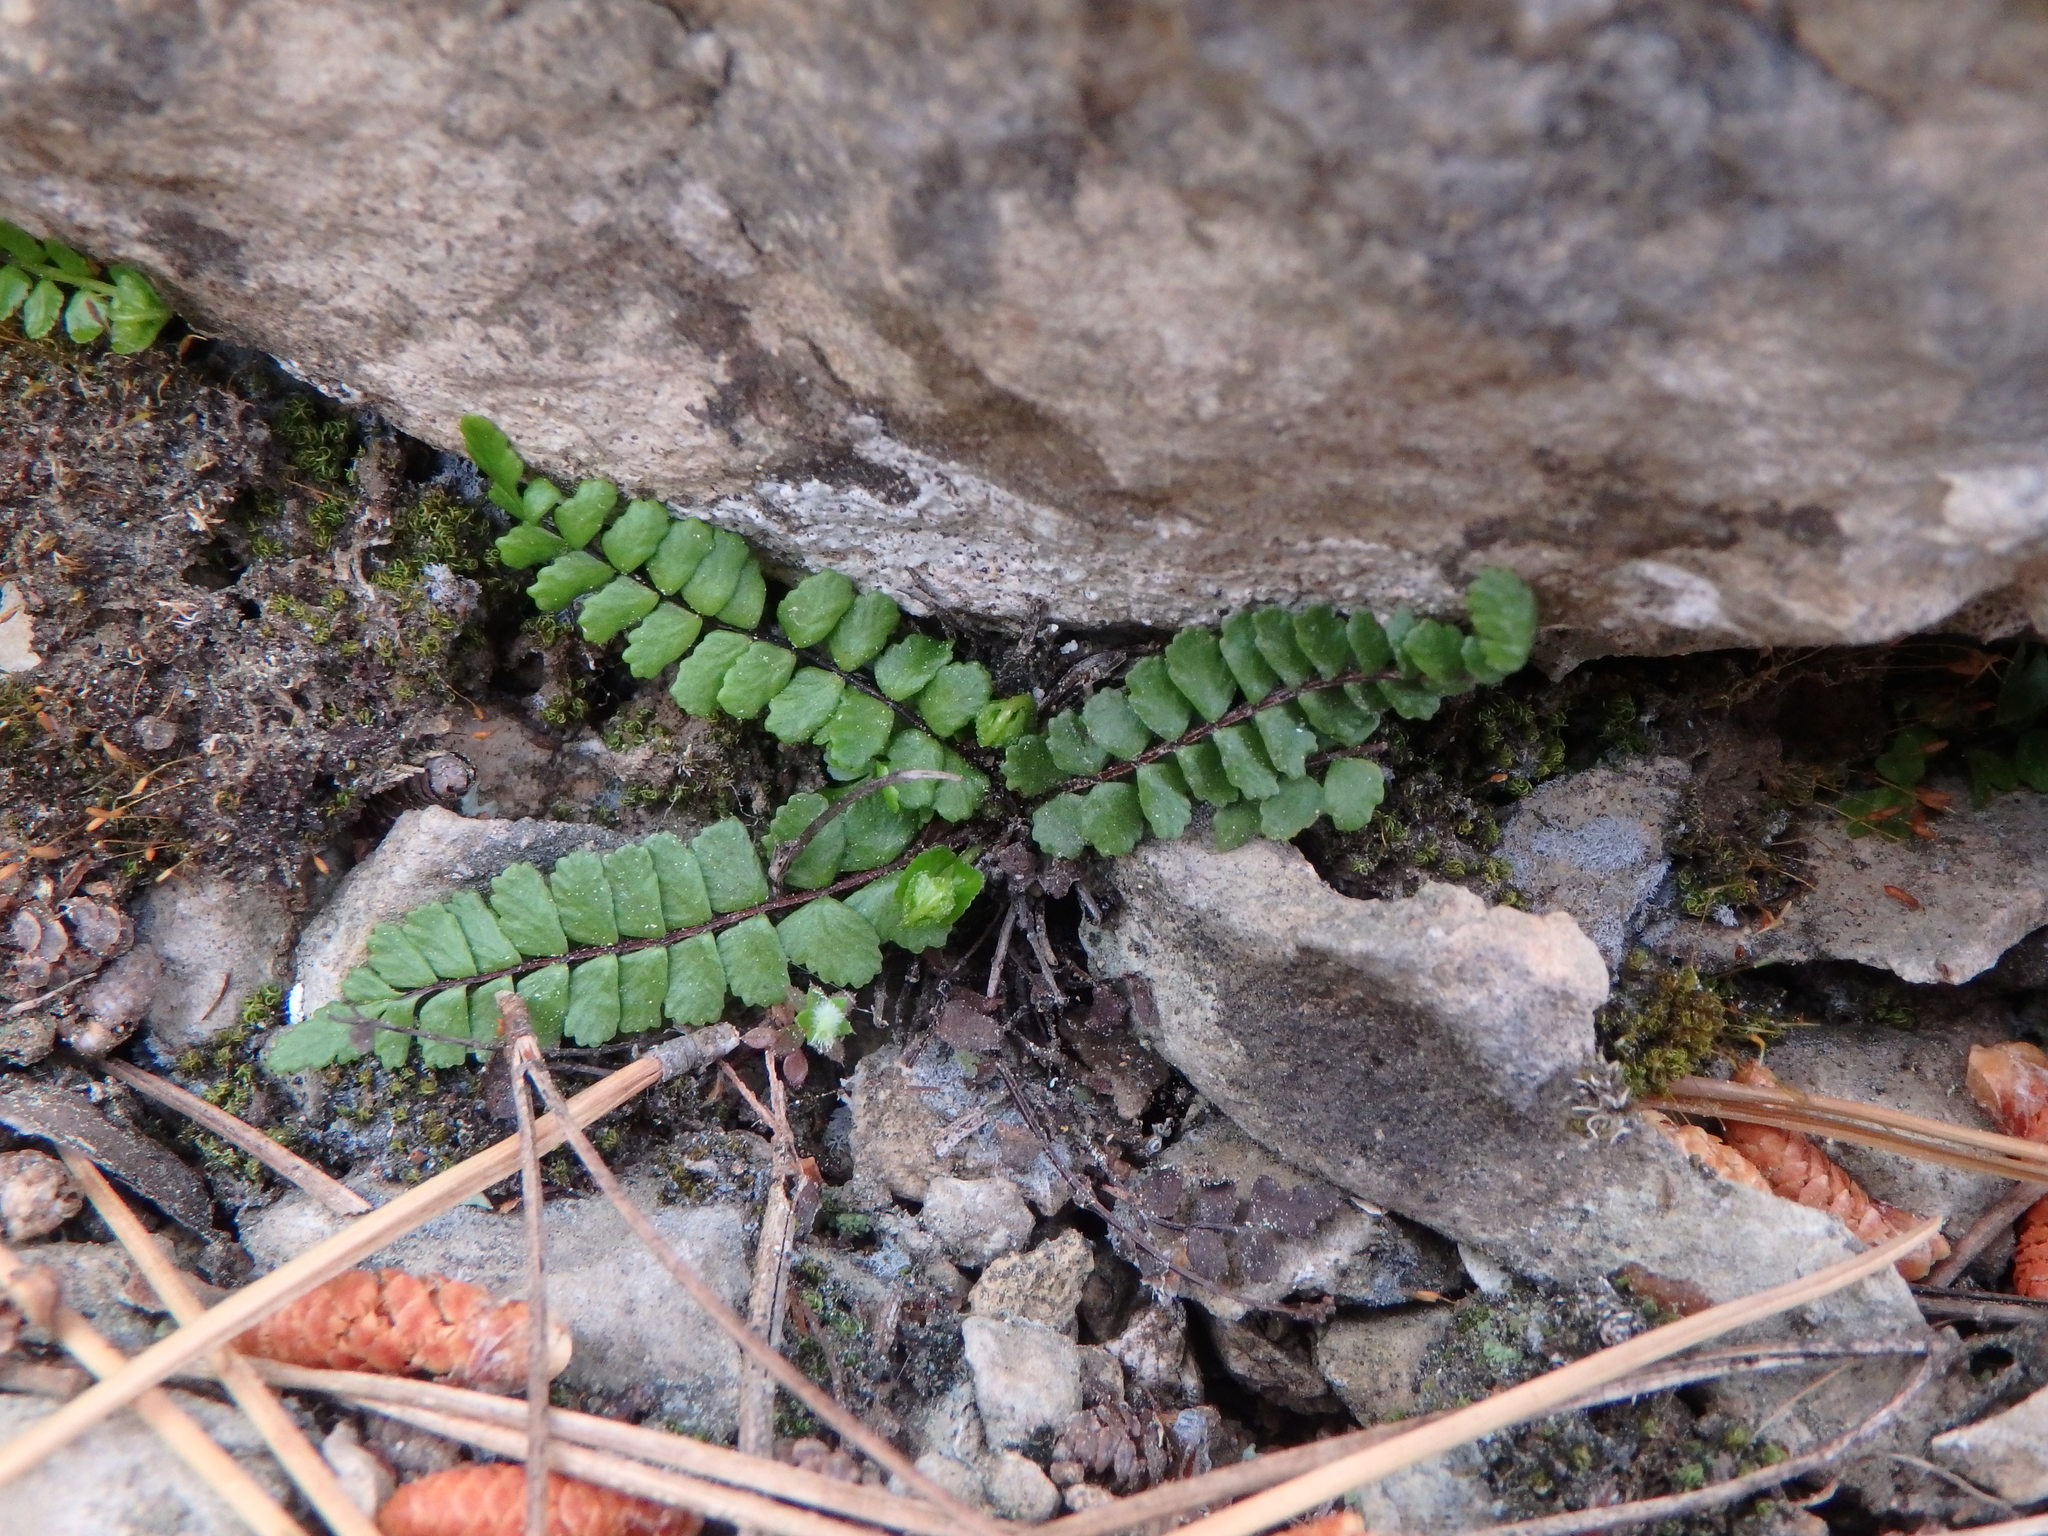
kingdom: Plantae
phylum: Tracheophyta
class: Polypodiopsida
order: Polypodiales
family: Aspleniaceae
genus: Asplenium
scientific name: Asplenium trichomanes
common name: Maidenhair spleenwort
